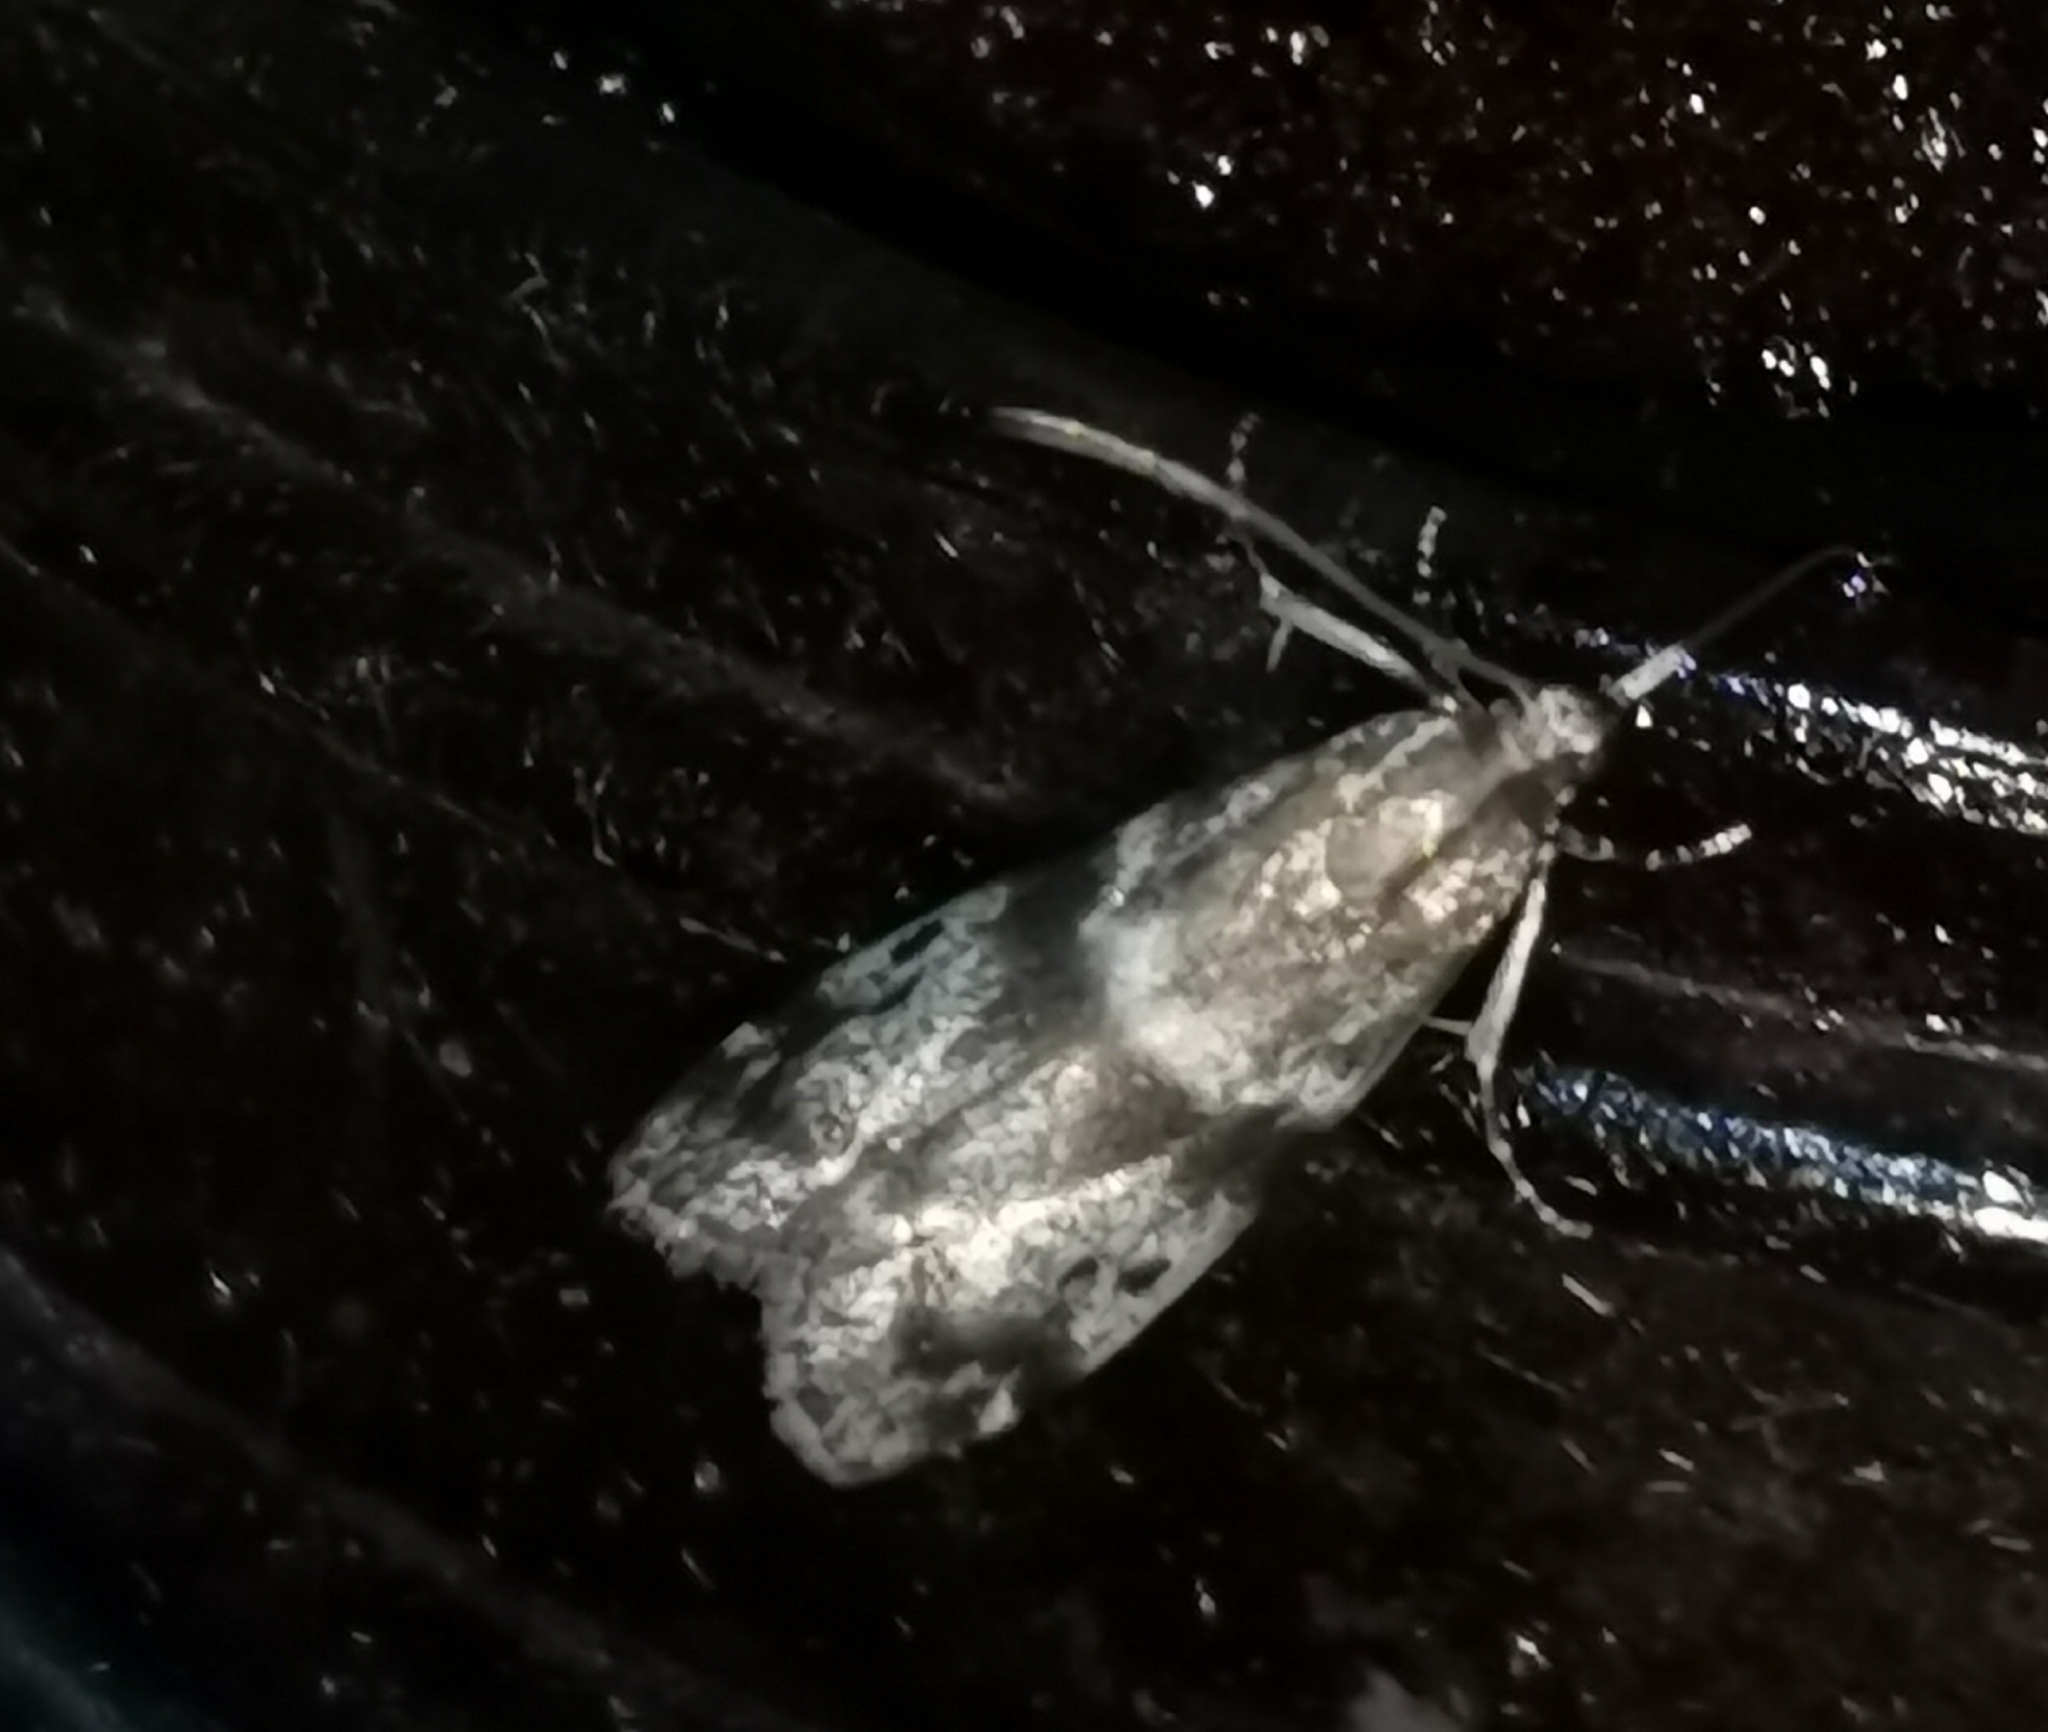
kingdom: Animalia
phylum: Arthropoda
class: Insecta
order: Lepidoptera
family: Pyralidae
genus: Assara
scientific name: Assara terebrella
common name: Dark spruce knot-horn
